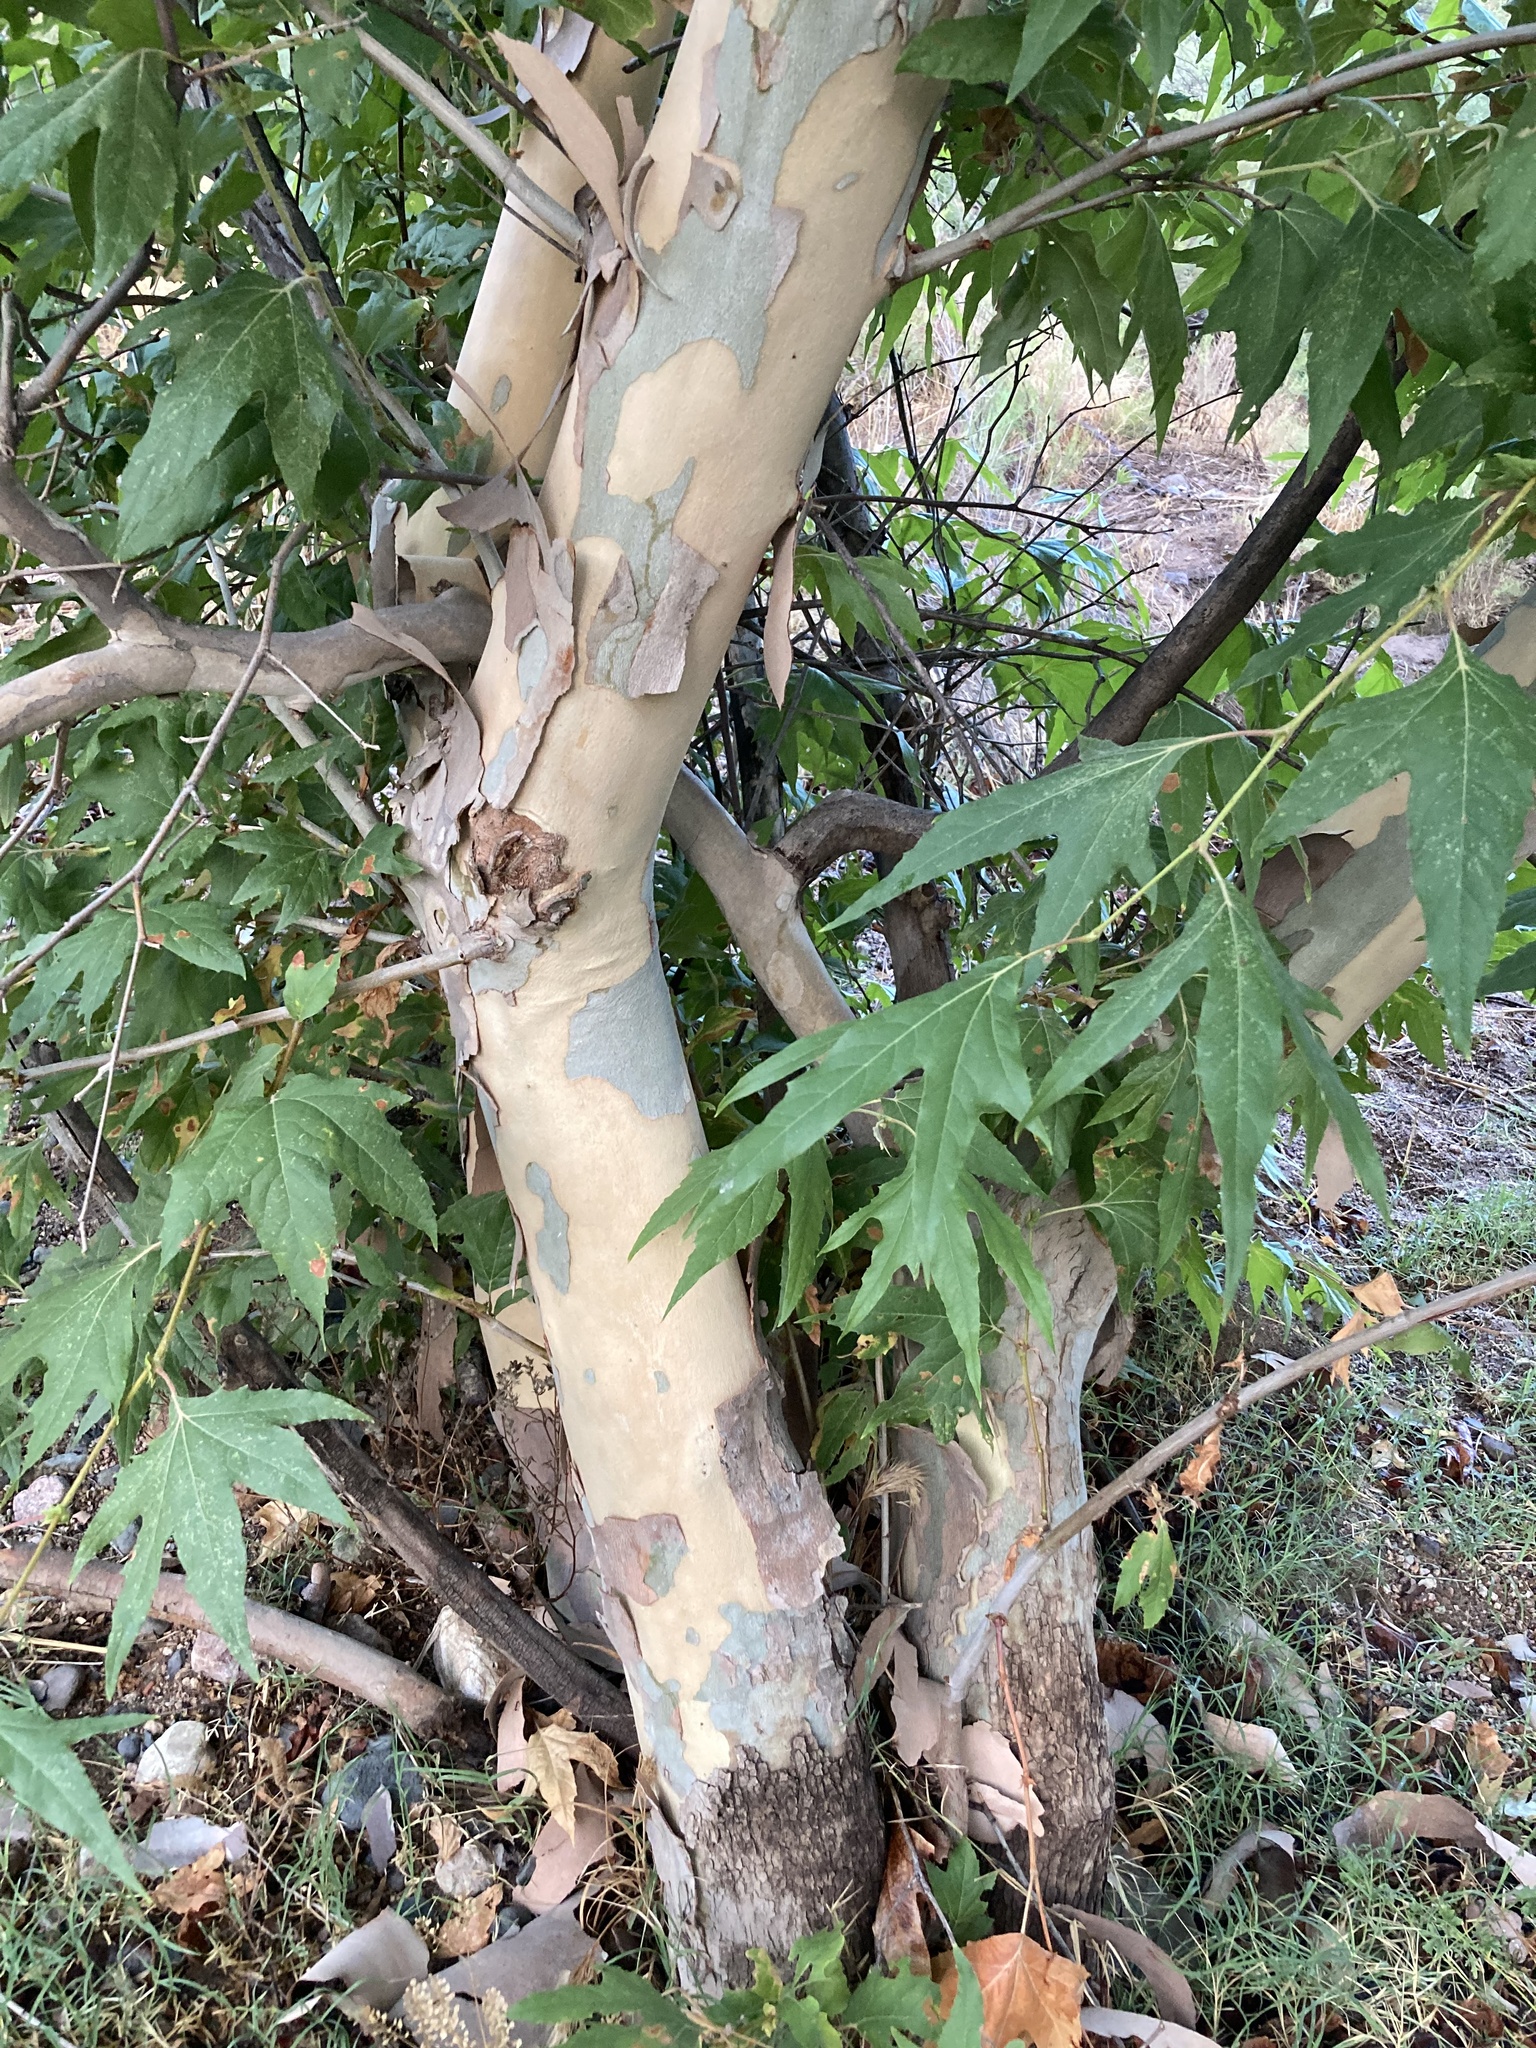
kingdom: Plantae
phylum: Tracheophyta
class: Magnoliopsida
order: Proteales
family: Platanaceae
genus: Platanus
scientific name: Platanus wrightii
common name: Arizona sycamore
